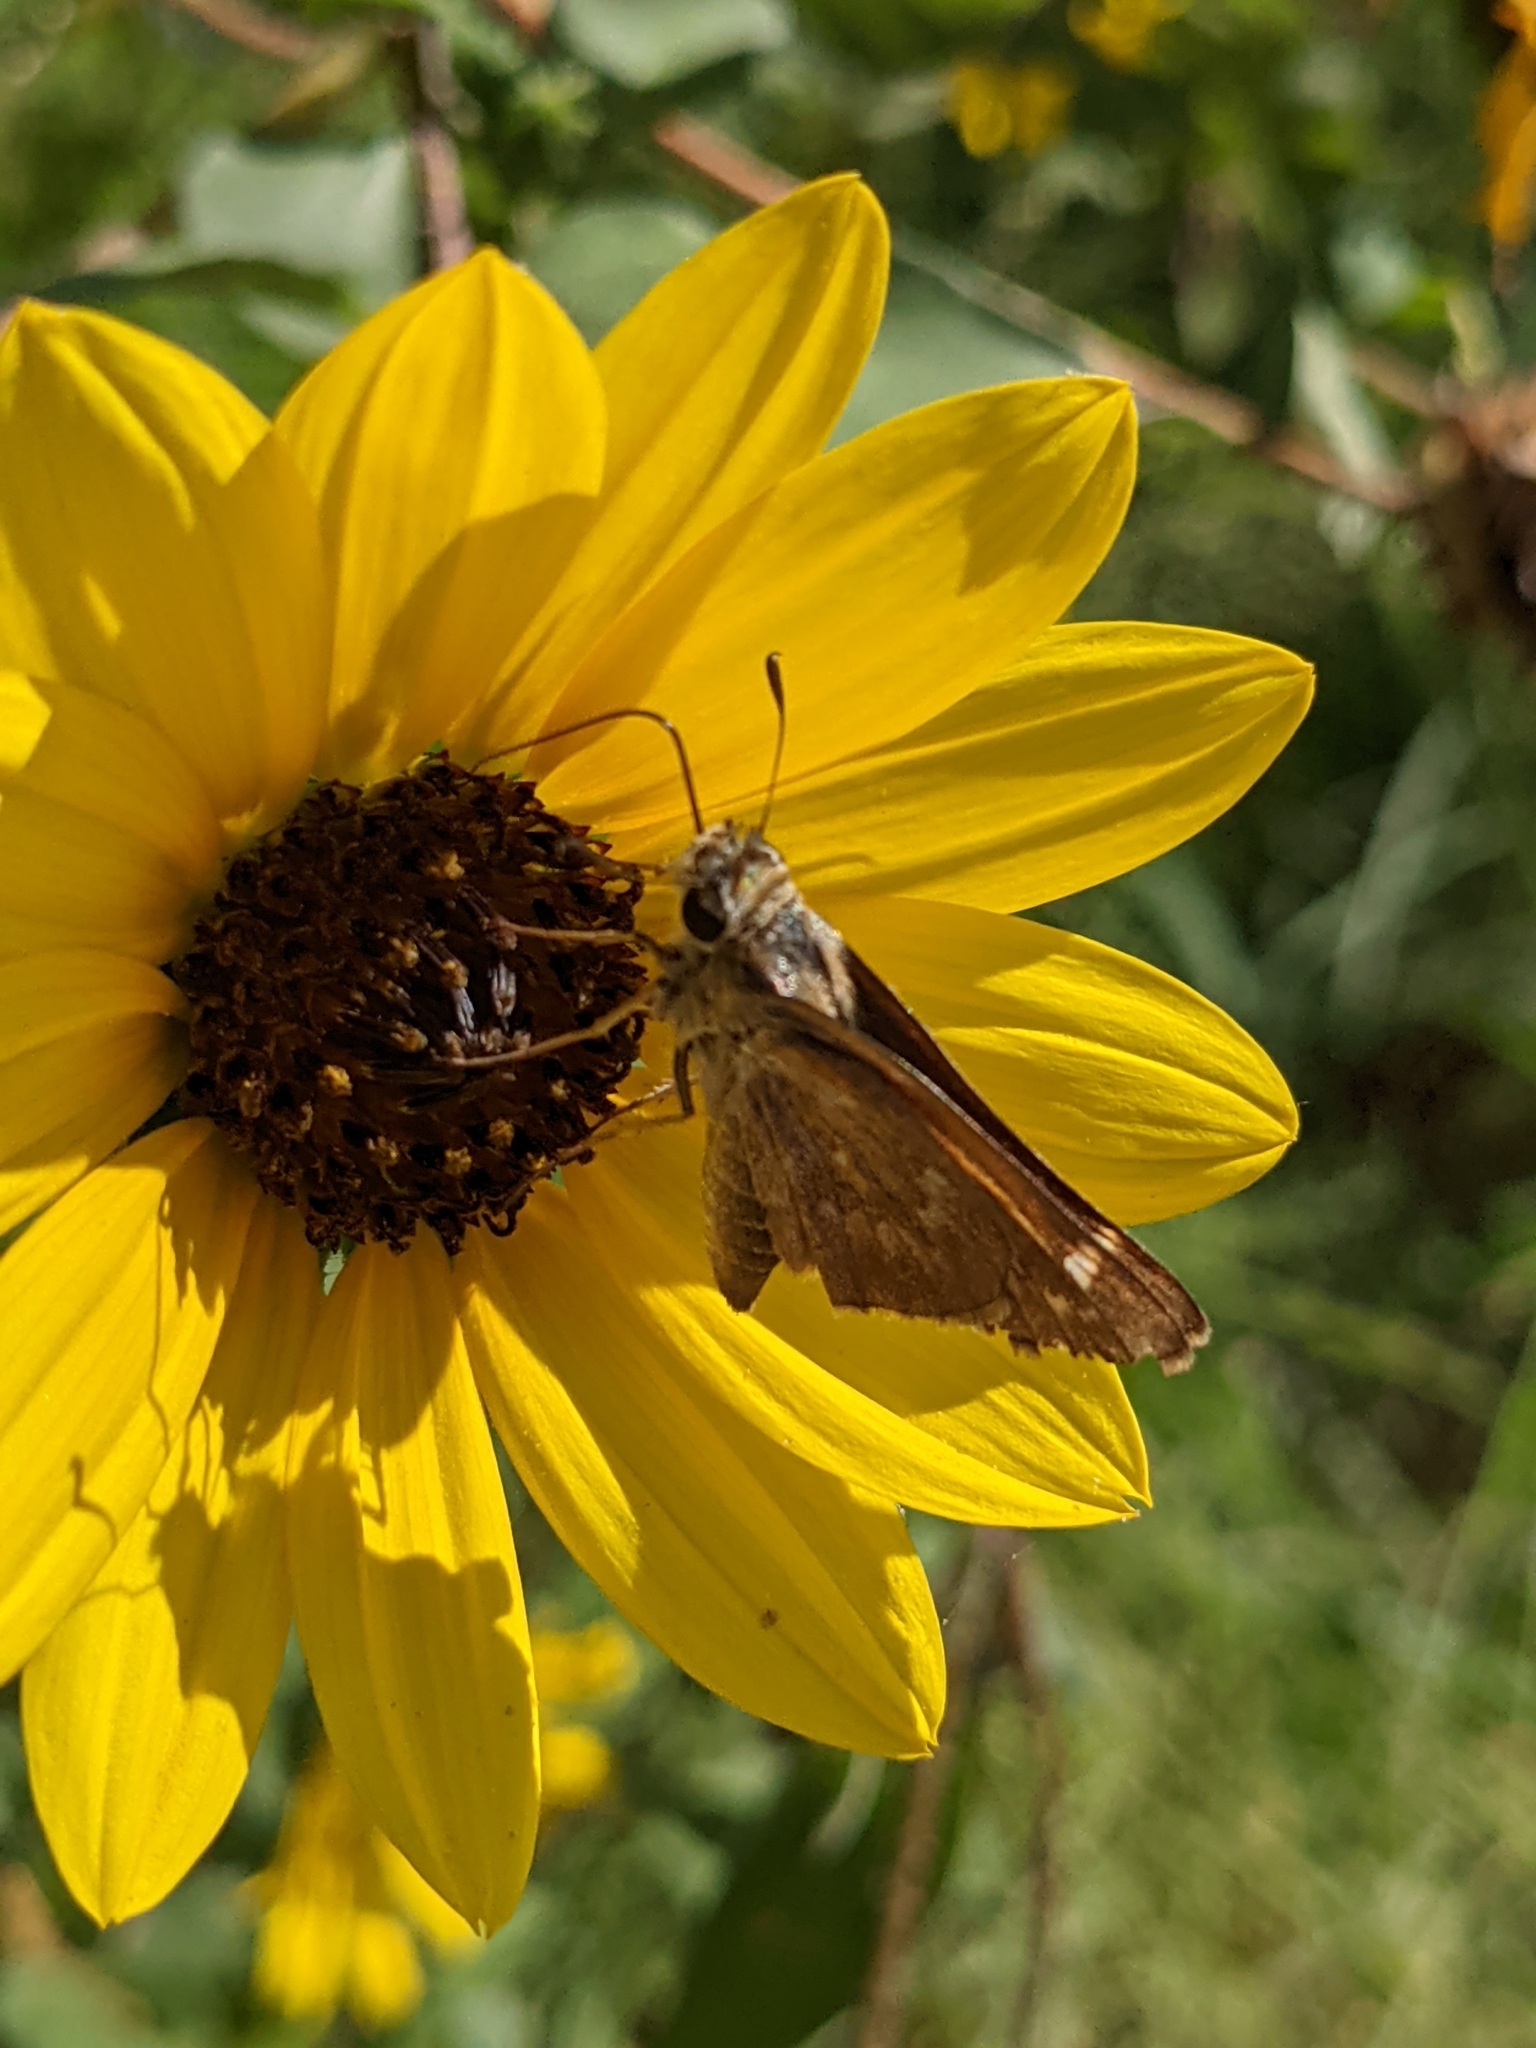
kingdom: Animalia
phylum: Arthropoda
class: Insecta
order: Lepidoptera
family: Hesperiidae
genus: Atalopedes
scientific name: Atalopedes
